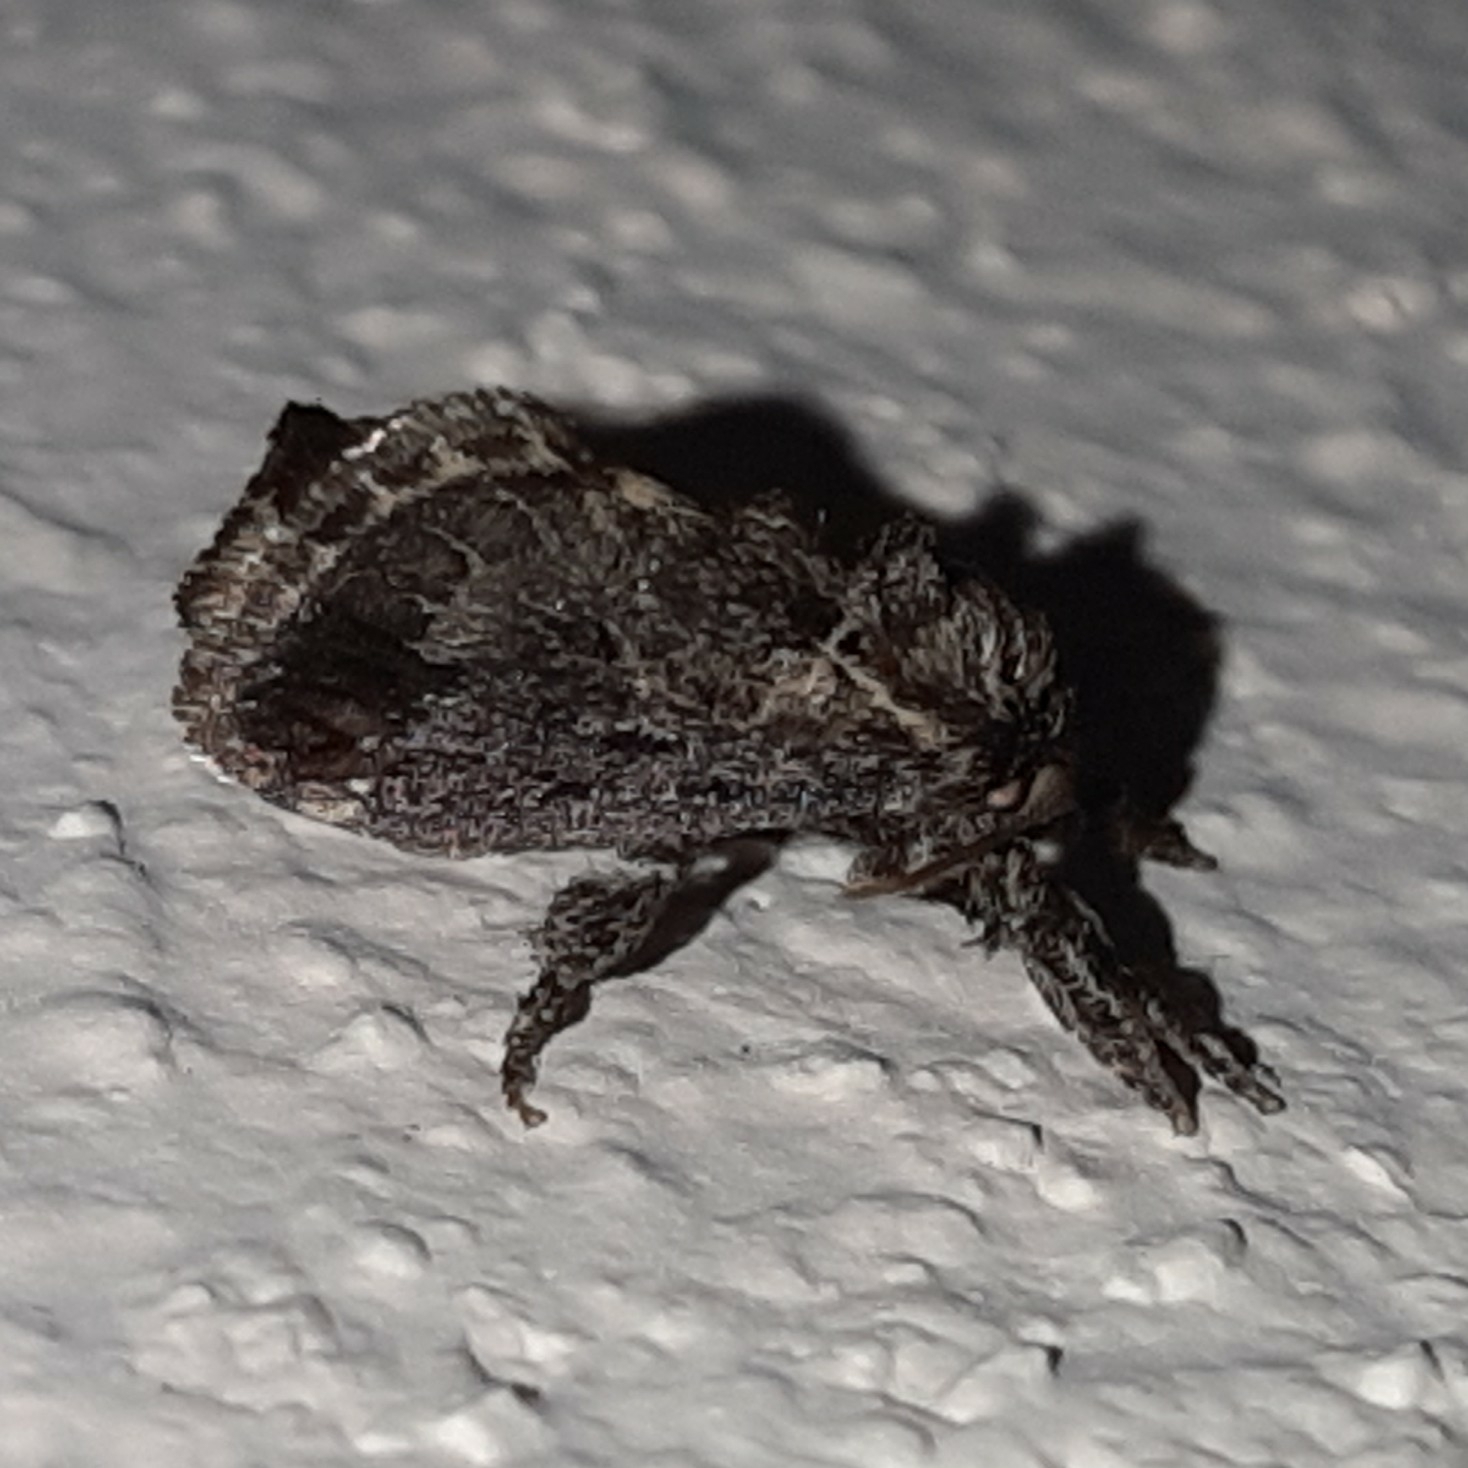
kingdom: Animalia
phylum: Arthropoda
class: Insecta
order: Lepidoptera
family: Limacodidae
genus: Euclea
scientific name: Euclea plugma
